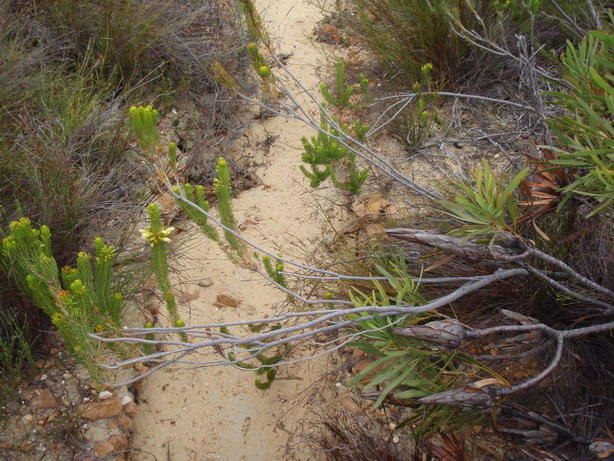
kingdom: Plantae
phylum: Tracheophyta
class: Magnoliopsida
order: Ericales
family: Ericaceae
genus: Erica
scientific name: Erica viscaria
